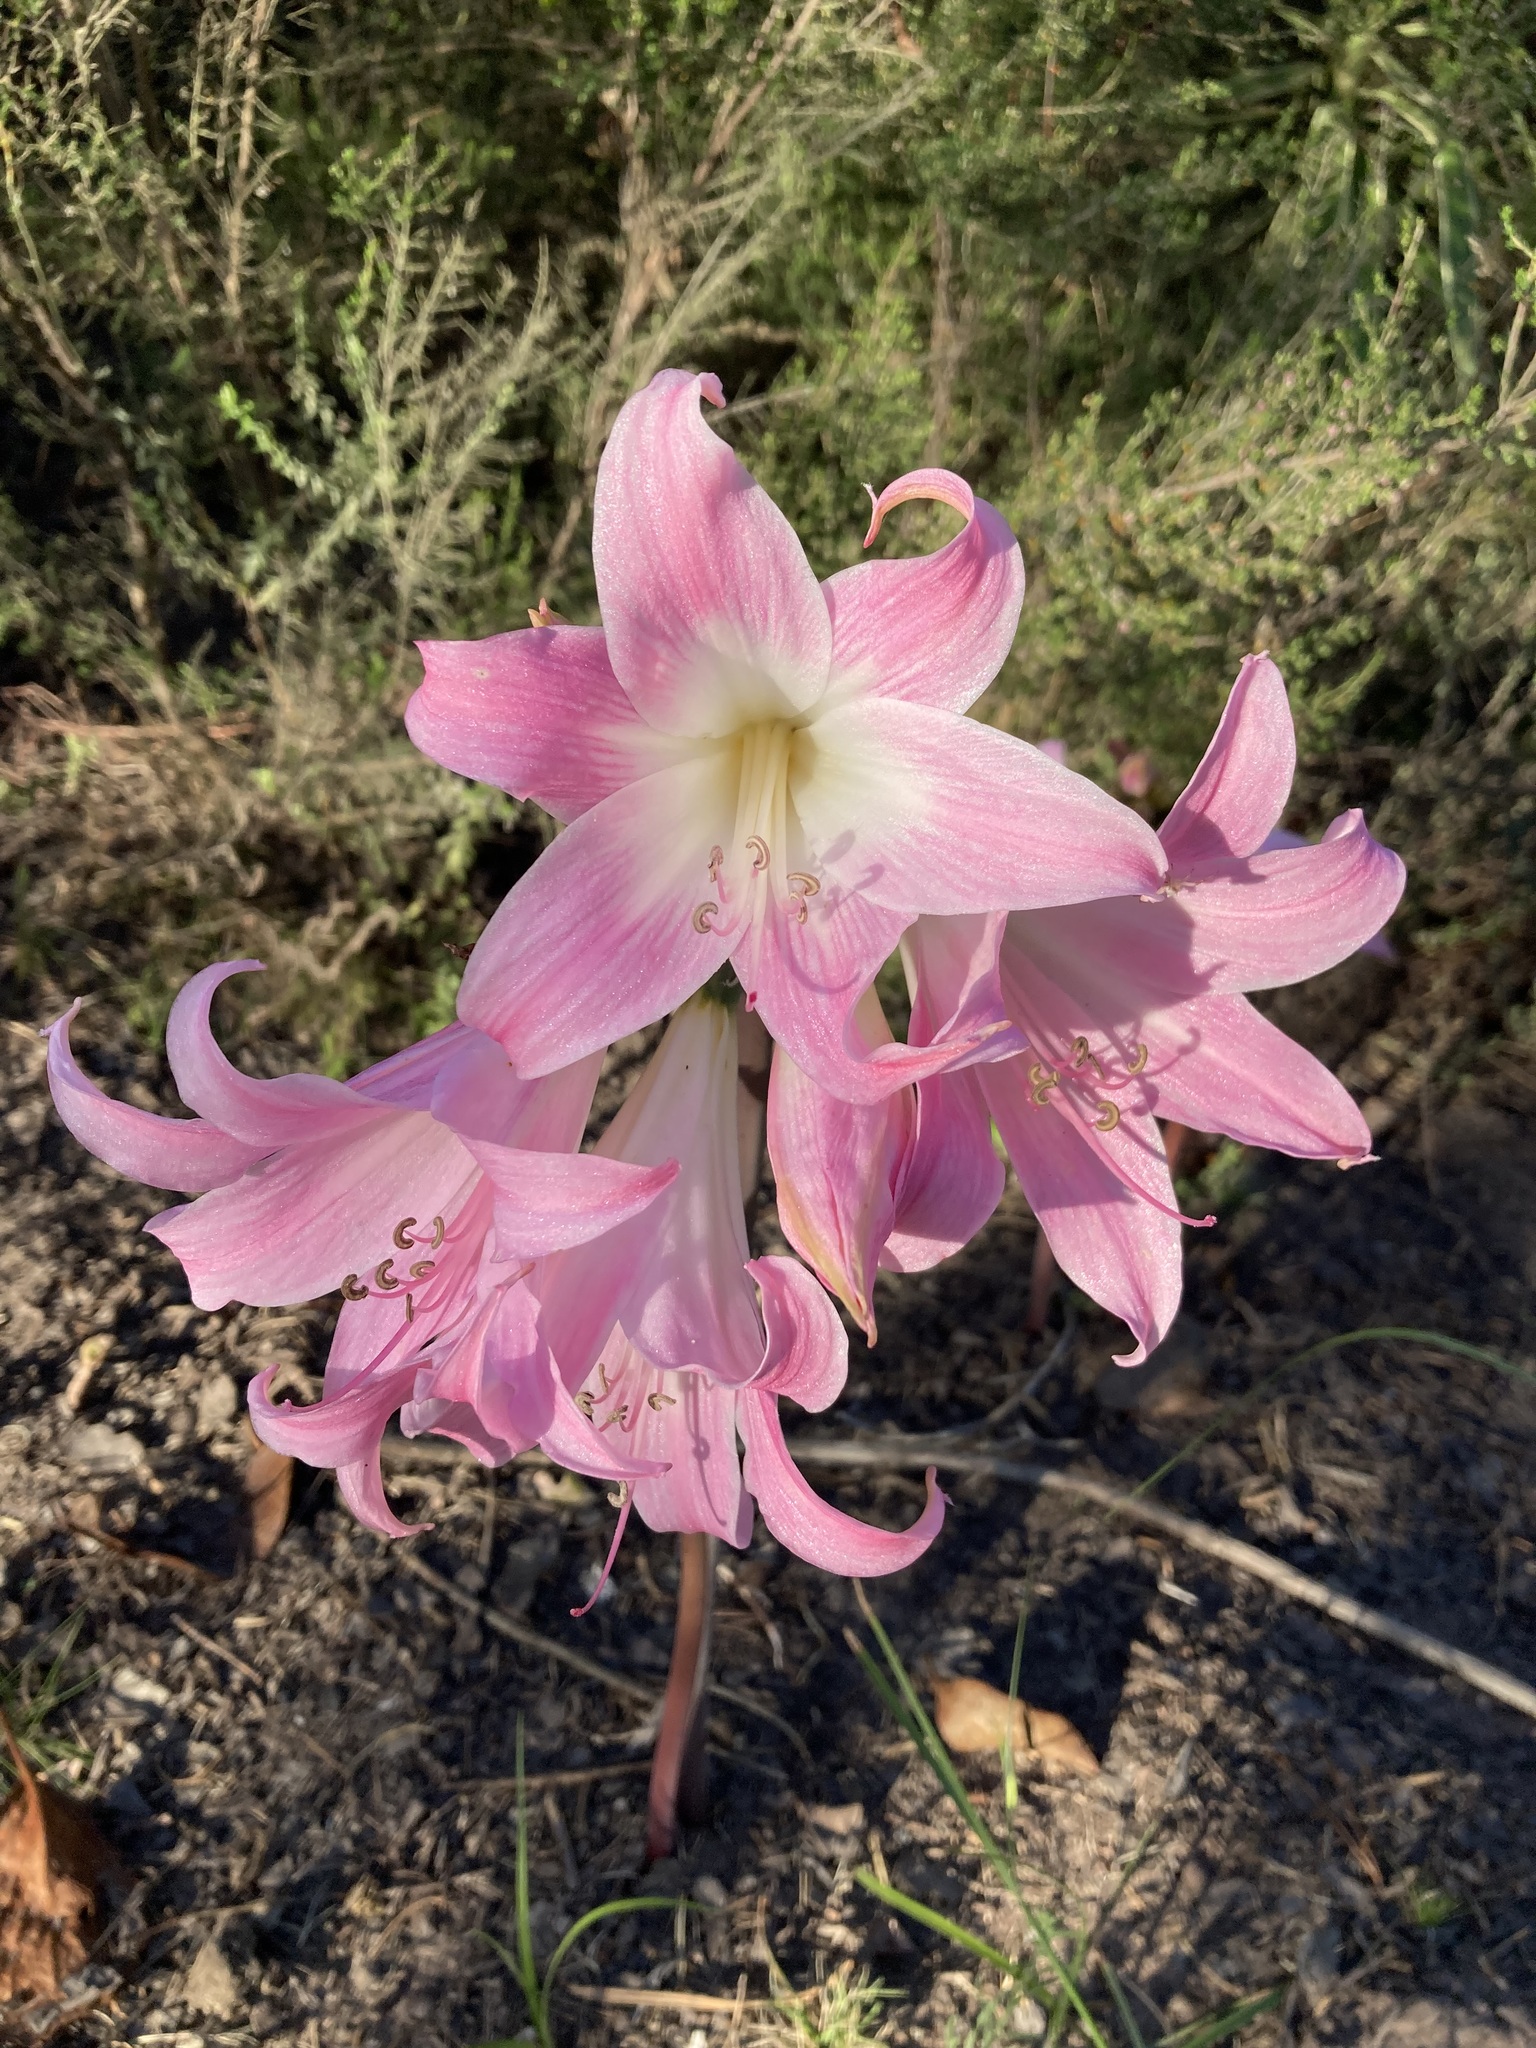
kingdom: Plantae
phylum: Tracheophyta
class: Liliopsida
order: Asparagales
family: Amaryllidaceae
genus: Amaryllis
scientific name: Amaryllis belladonna
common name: Jersey lily
